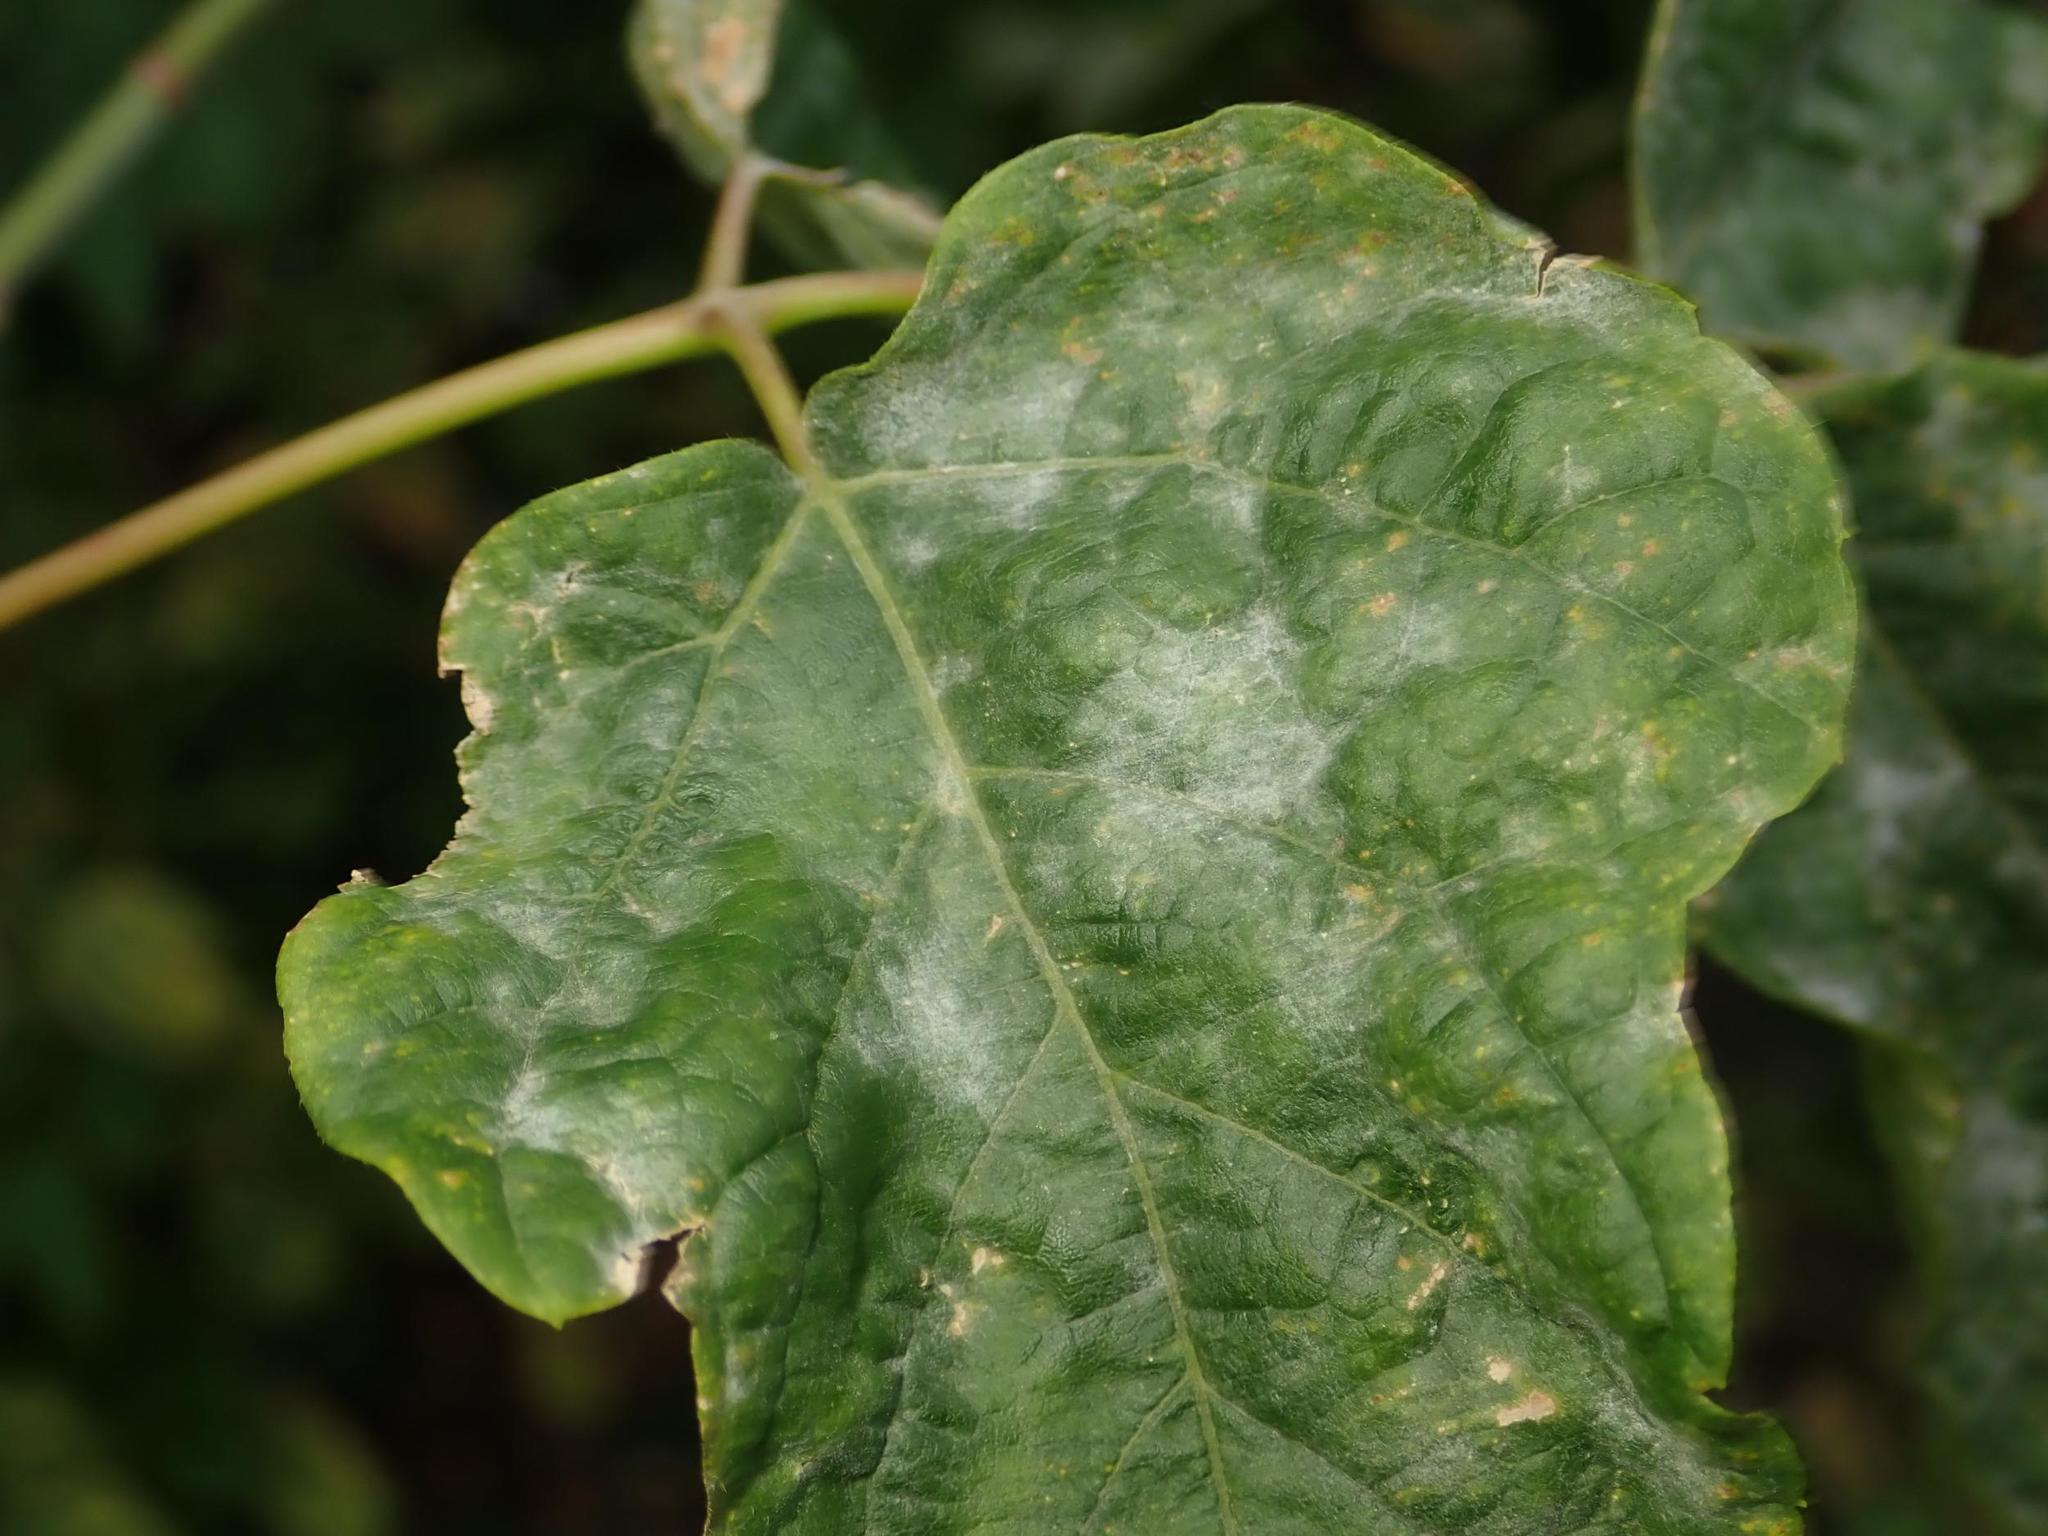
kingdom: Fungi
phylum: Ascomycota
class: Leotiomycetes
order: Helotiales
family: Erysiphaceae
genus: Sawadaea
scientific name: Sawadaea bicornis
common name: Maple mildew
